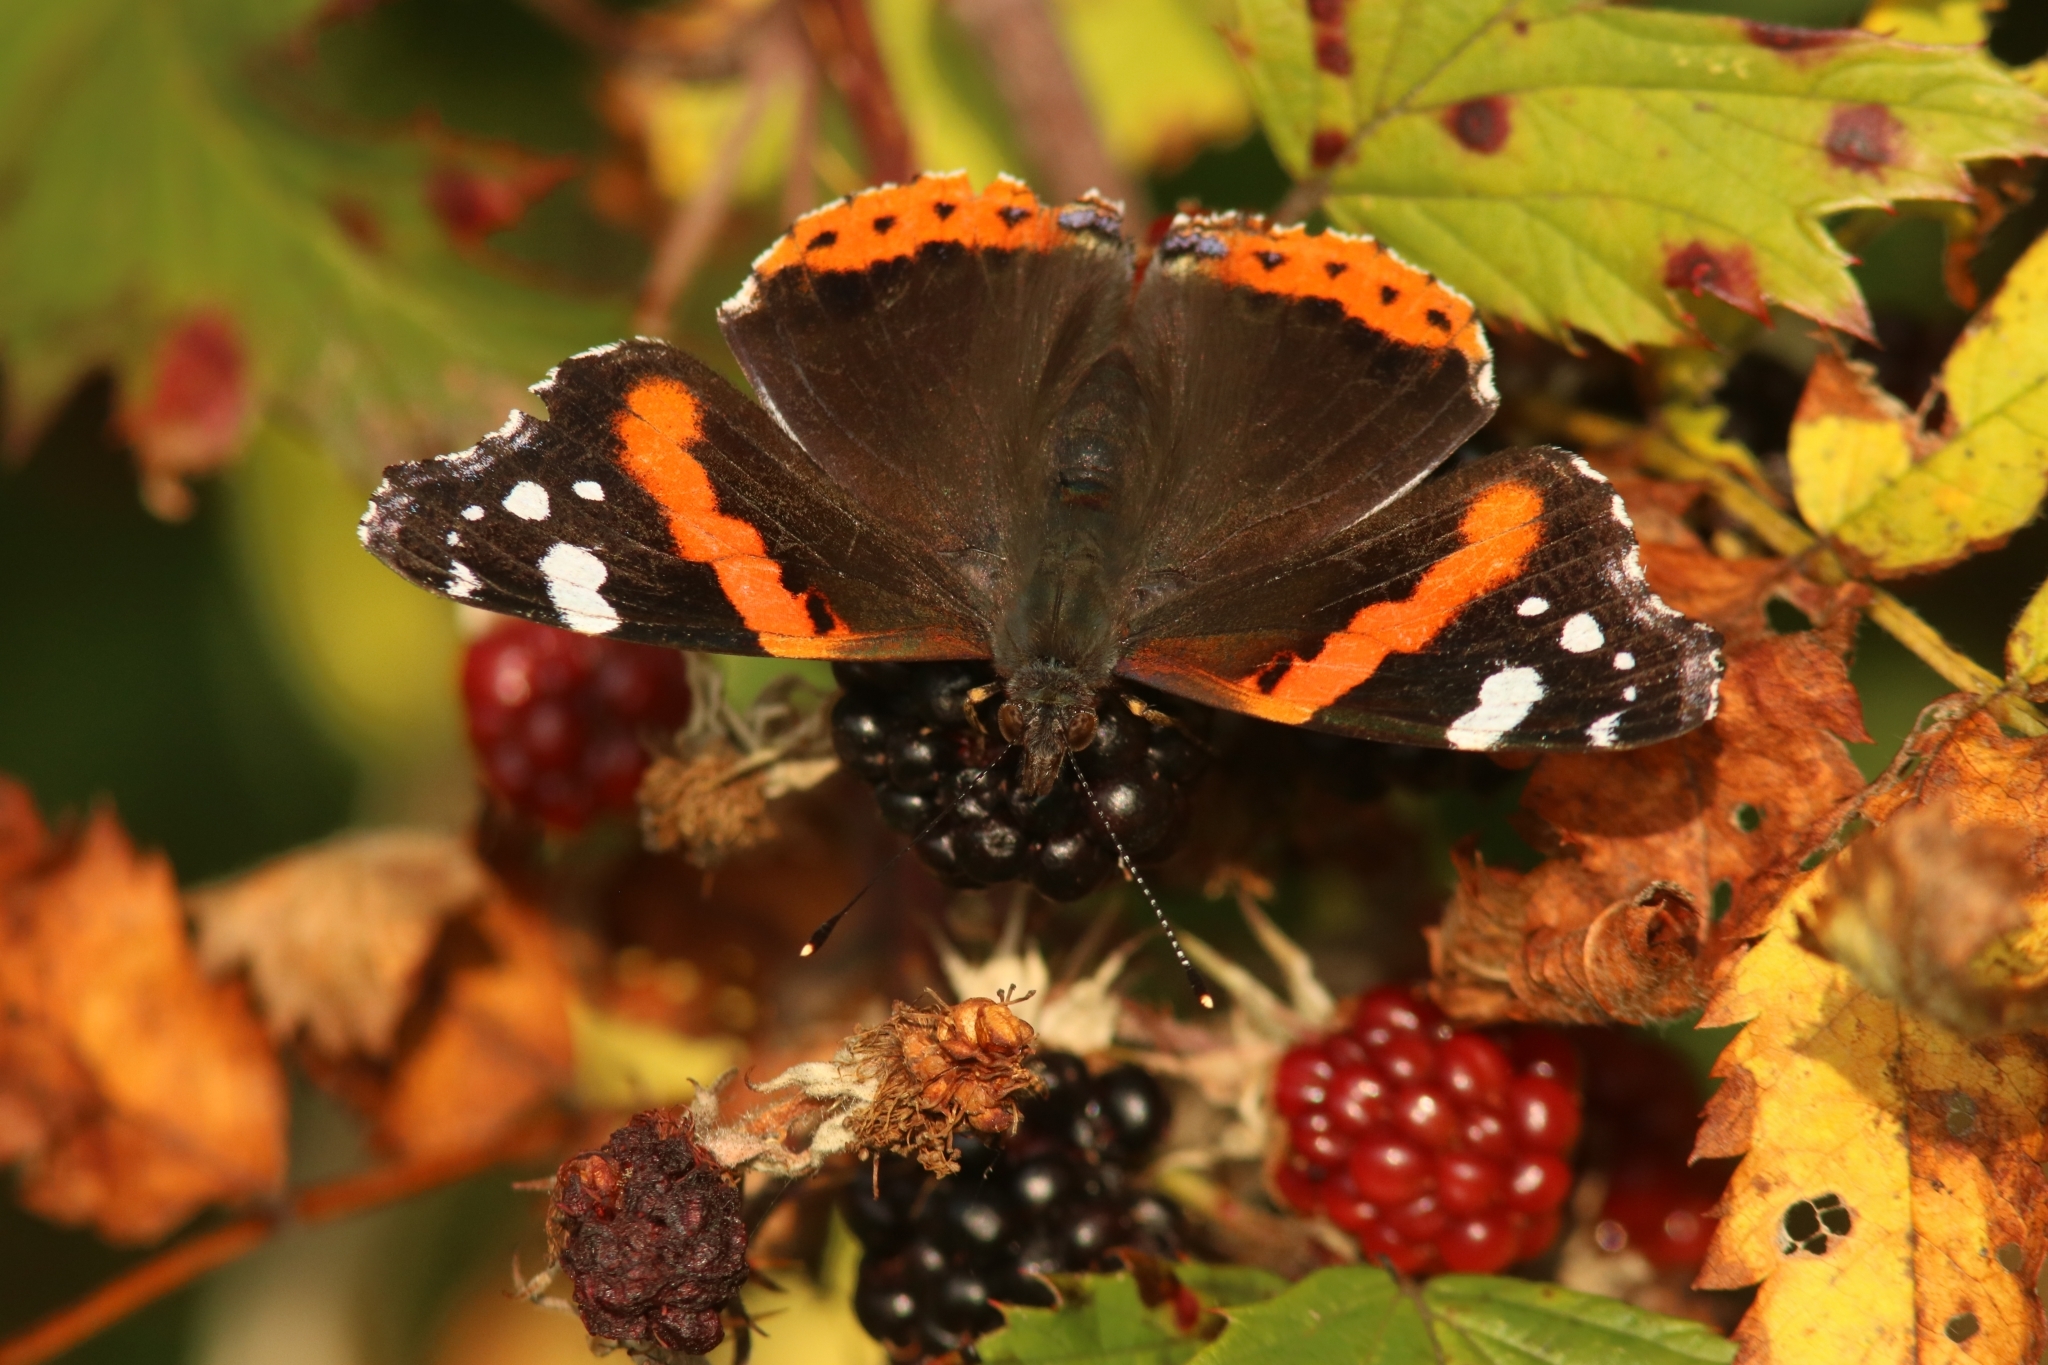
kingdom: Animalia
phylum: Arthropoda
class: Insecta
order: Lepidoptera
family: Nymphalidae
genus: Vanessa
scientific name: Vanessa atalanta
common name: Red admiral
